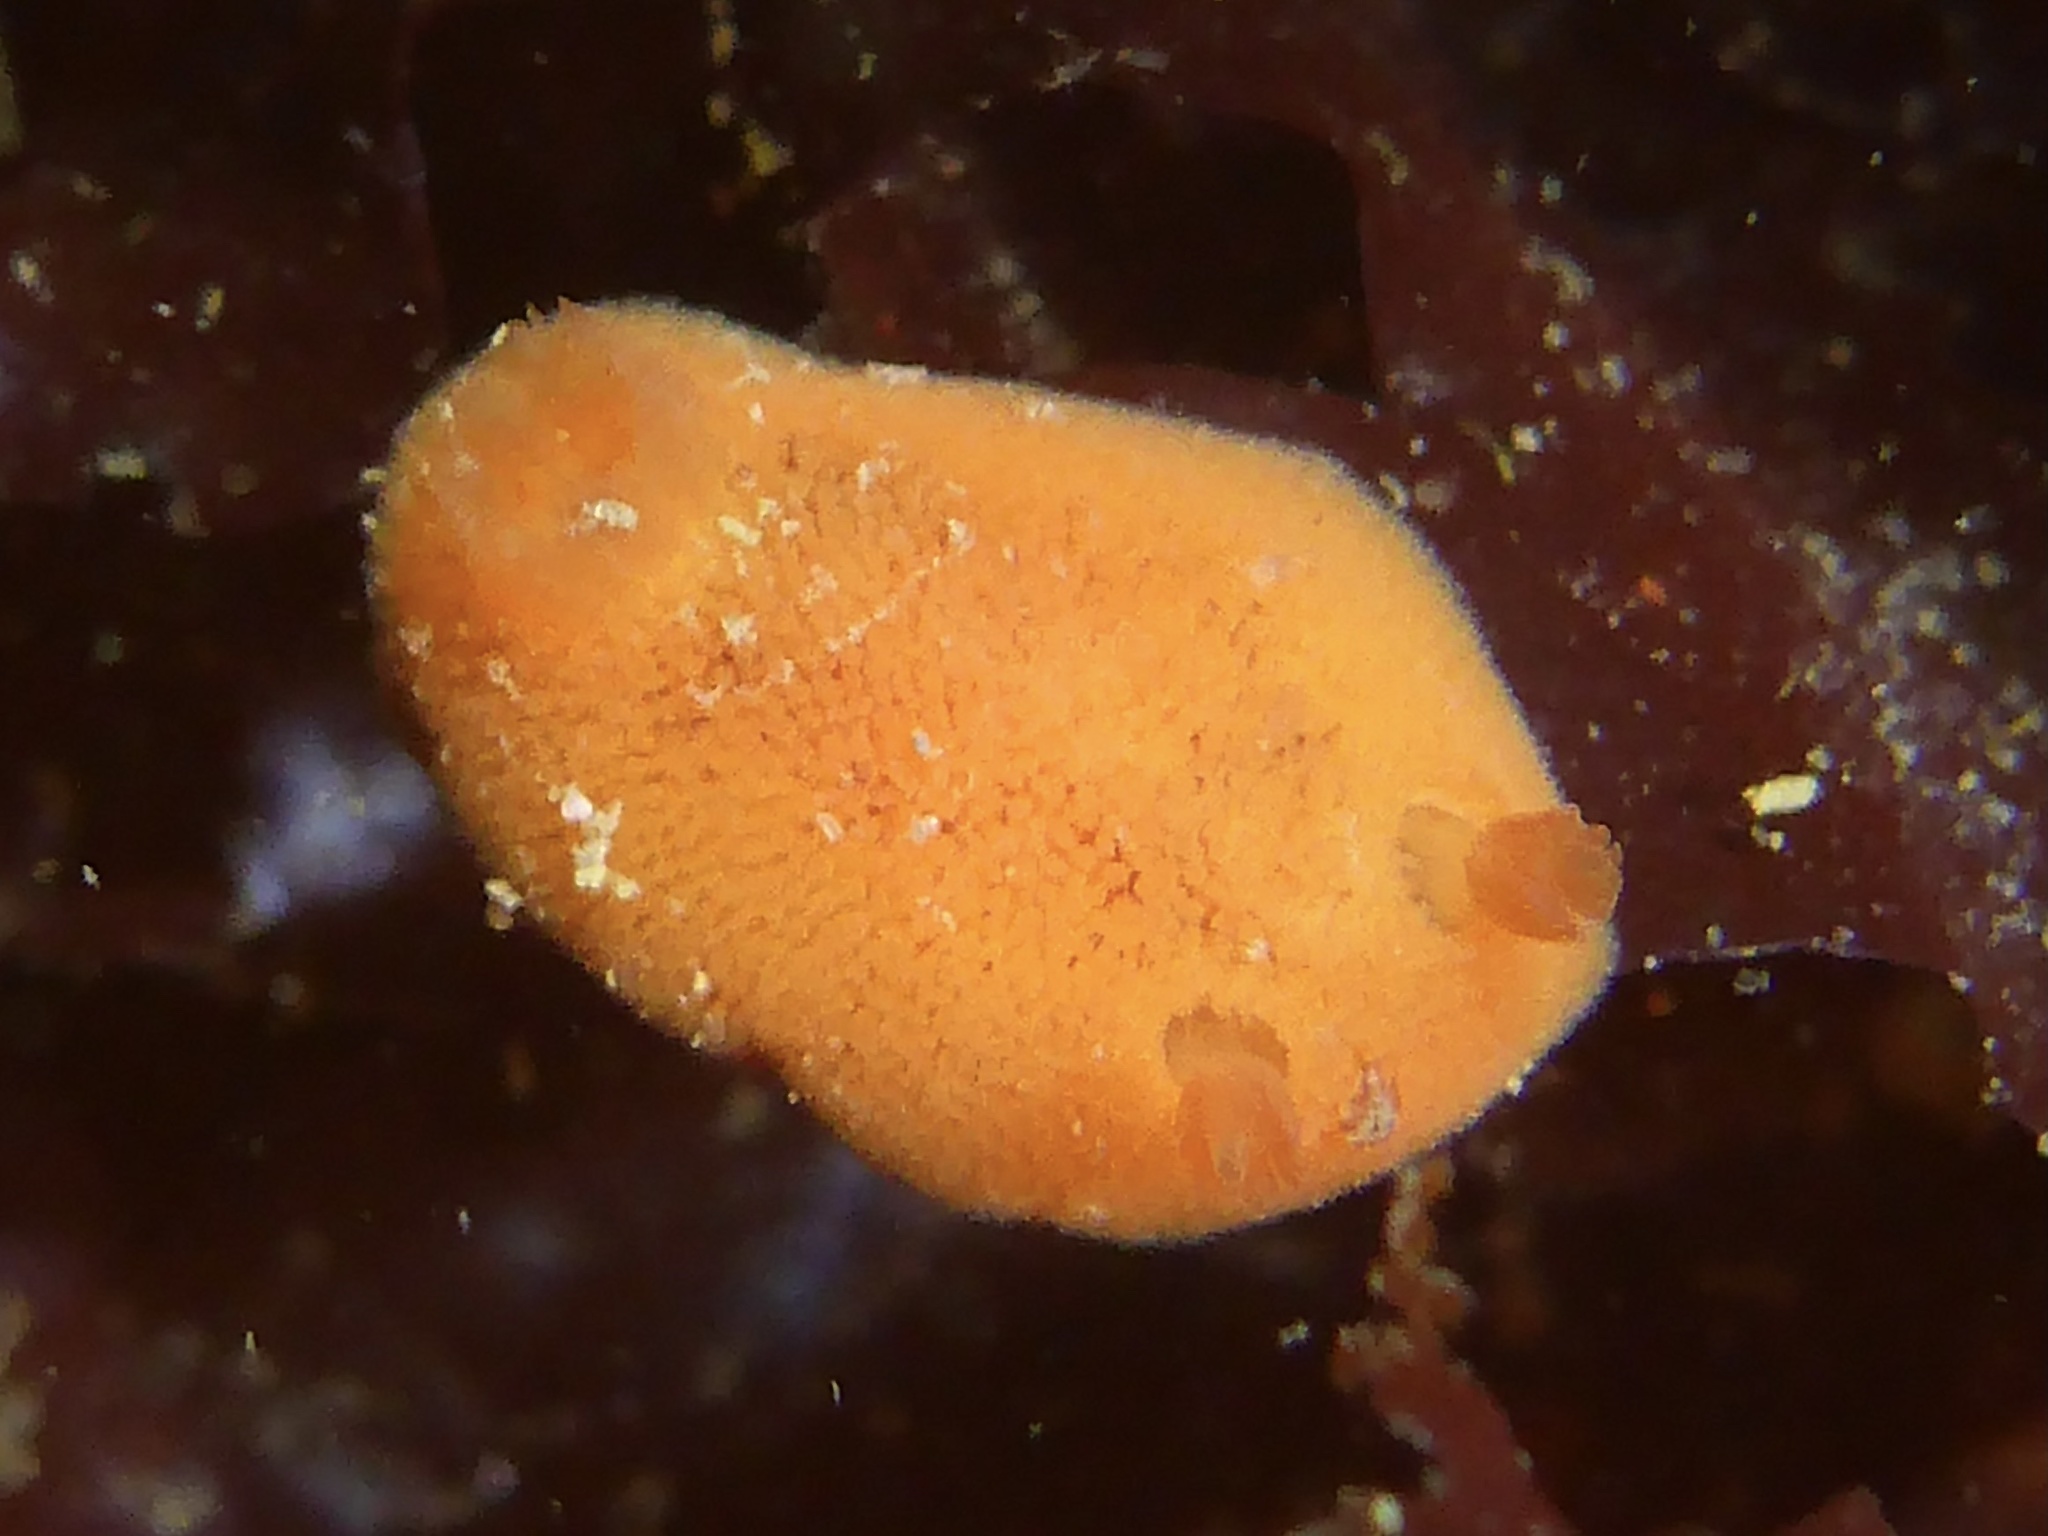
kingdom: Animalia
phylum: Mollusca
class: Gastropoda
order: Nudibranchia
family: Discodorididae
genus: Rostanga
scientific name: Rostanga pulchra
